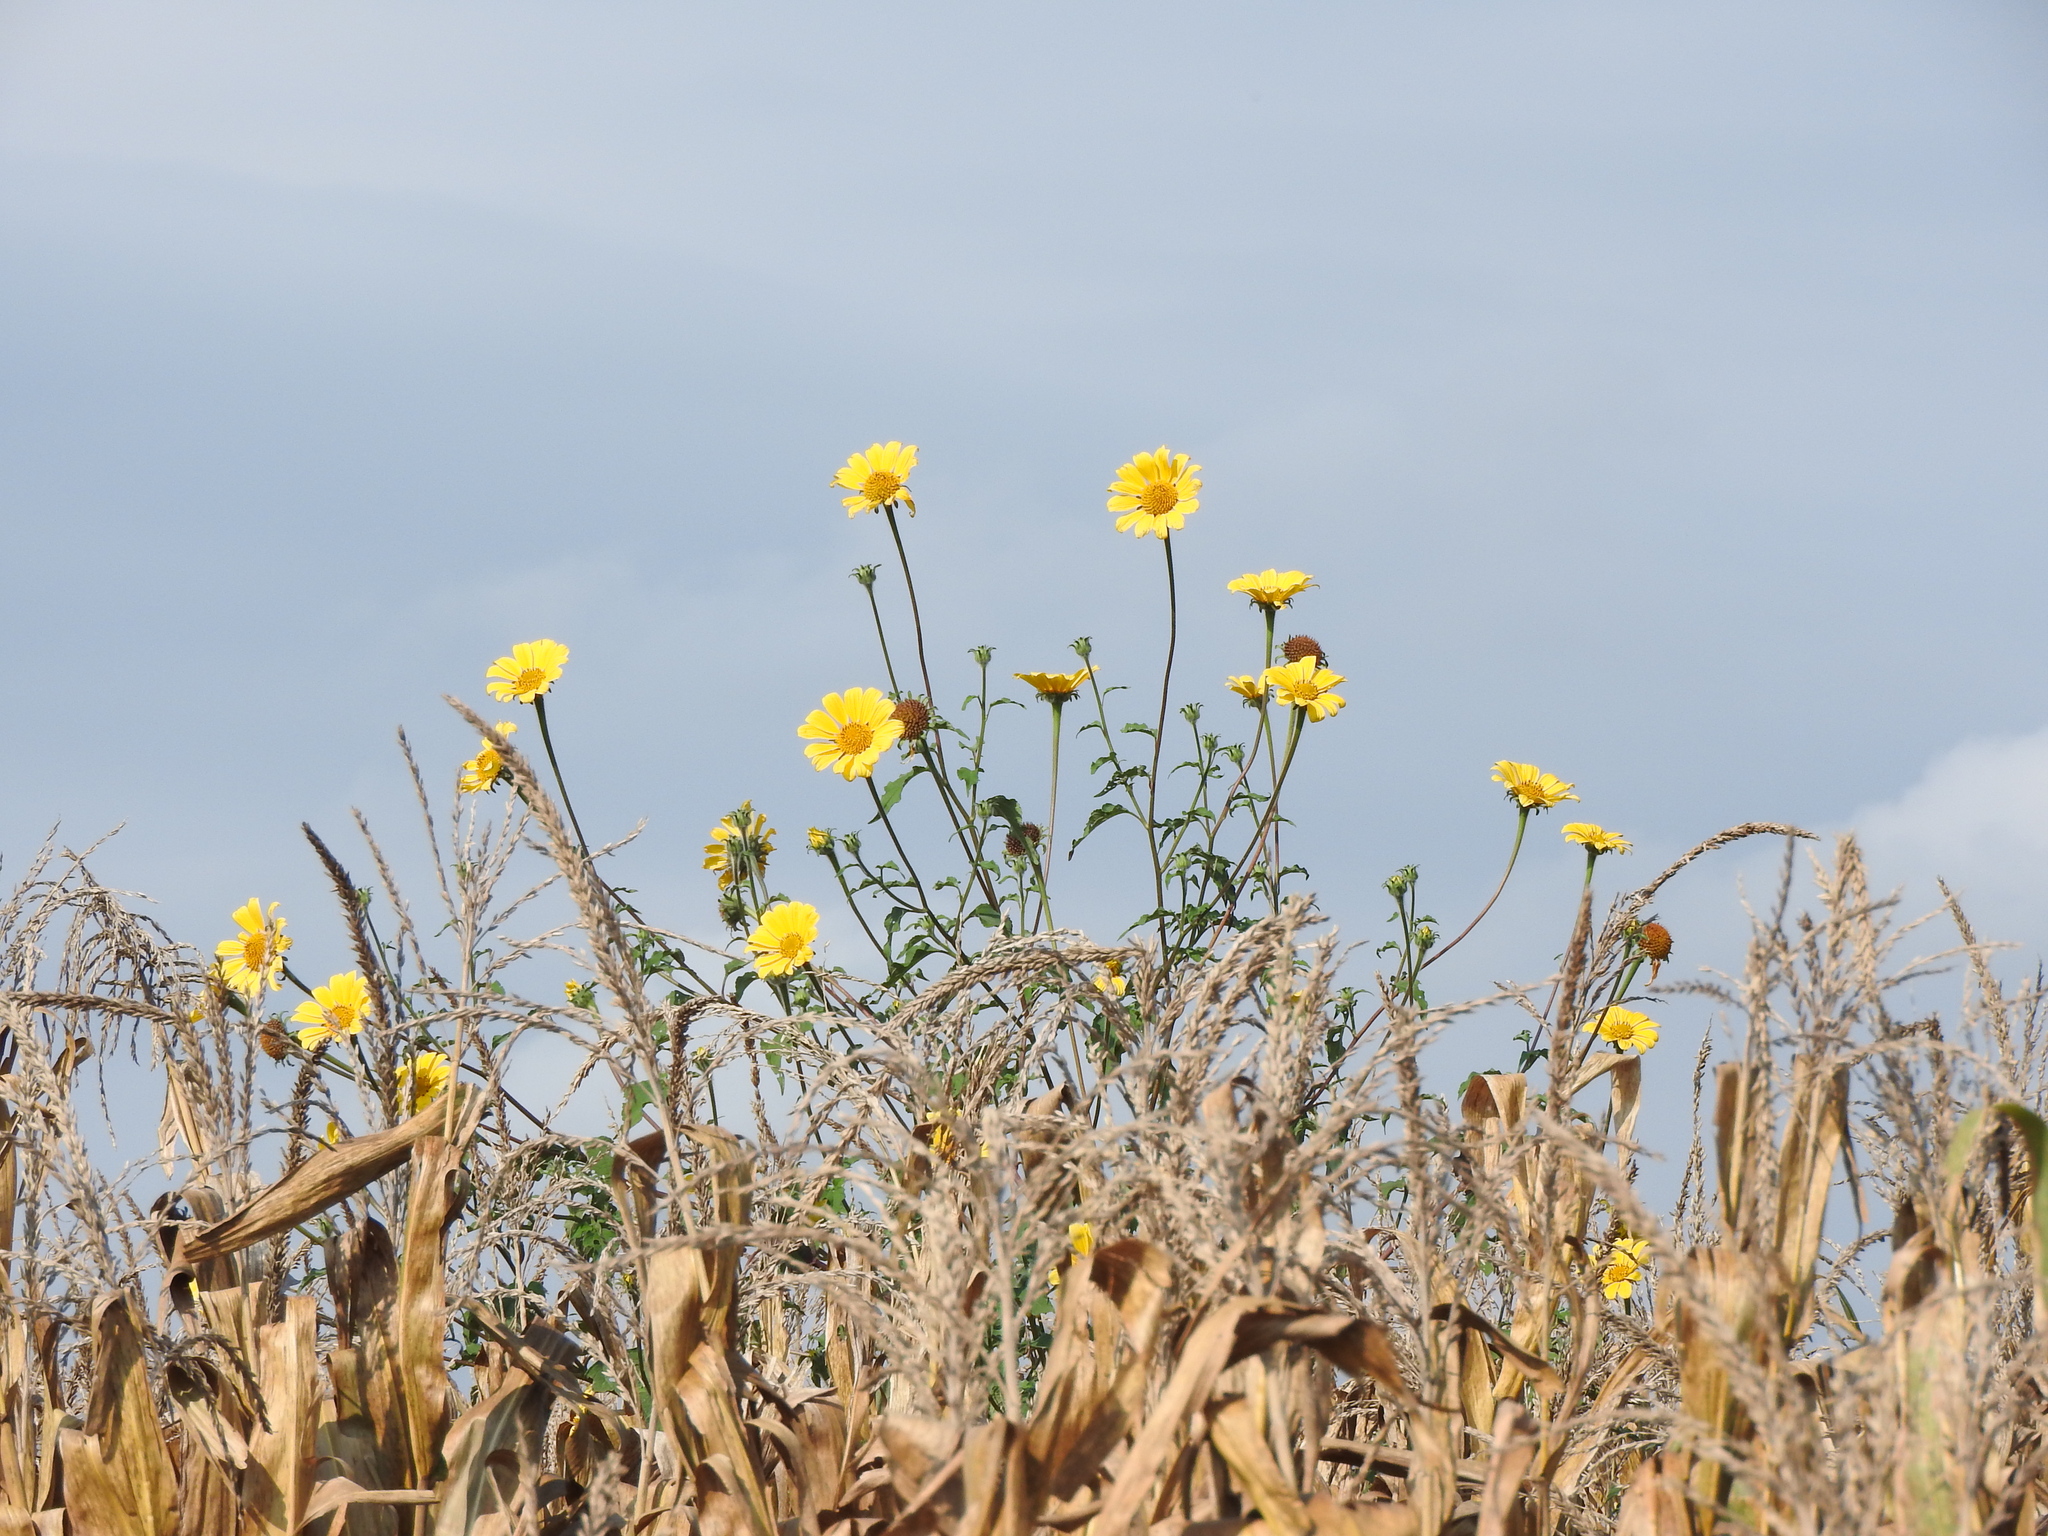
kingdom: Plantae
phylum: Tracheophyta
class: Magnoliopsida
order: Asterales
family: Asteraceae
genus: Tithonia
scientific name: Tithonia tubaeformis
